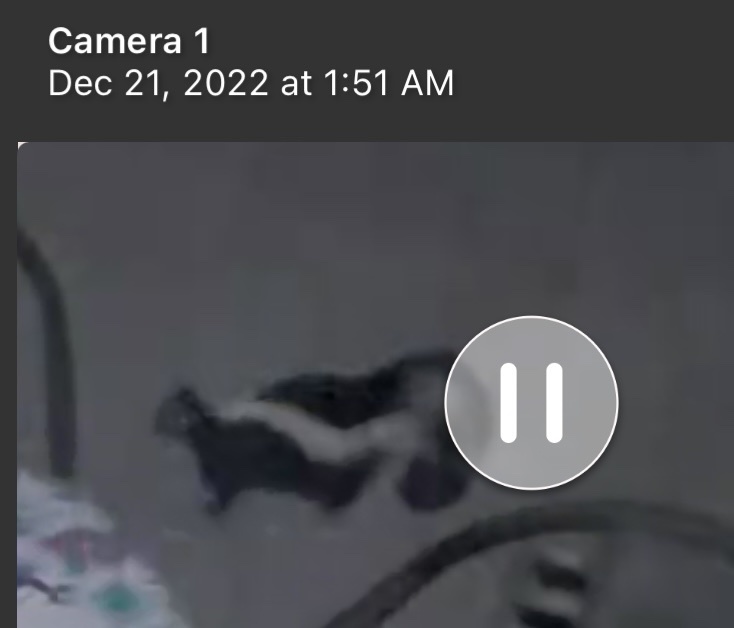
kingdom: Animalia
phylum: Chordata
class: Mammalia
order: Carnivora
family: Mephitidae
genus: Mephitis
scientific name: Mephitis mephitis
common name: Striped skunk
